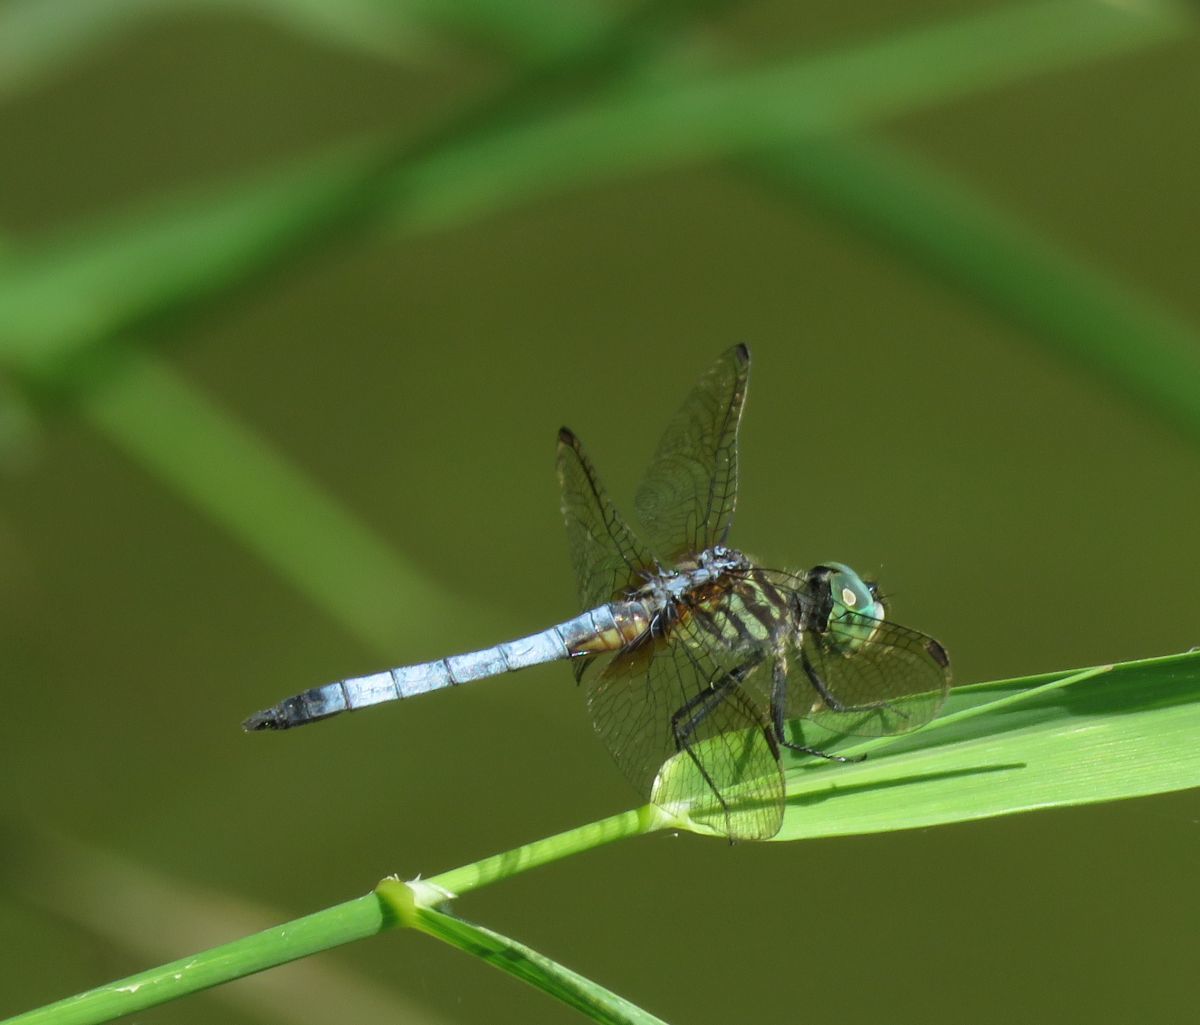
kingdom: Animalia
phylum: Arthropoda
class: Insecta
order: Odonata
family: Libellulidae
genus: Pachydiplax
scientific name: Pachydiplax longipennis
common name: Blue dasher
